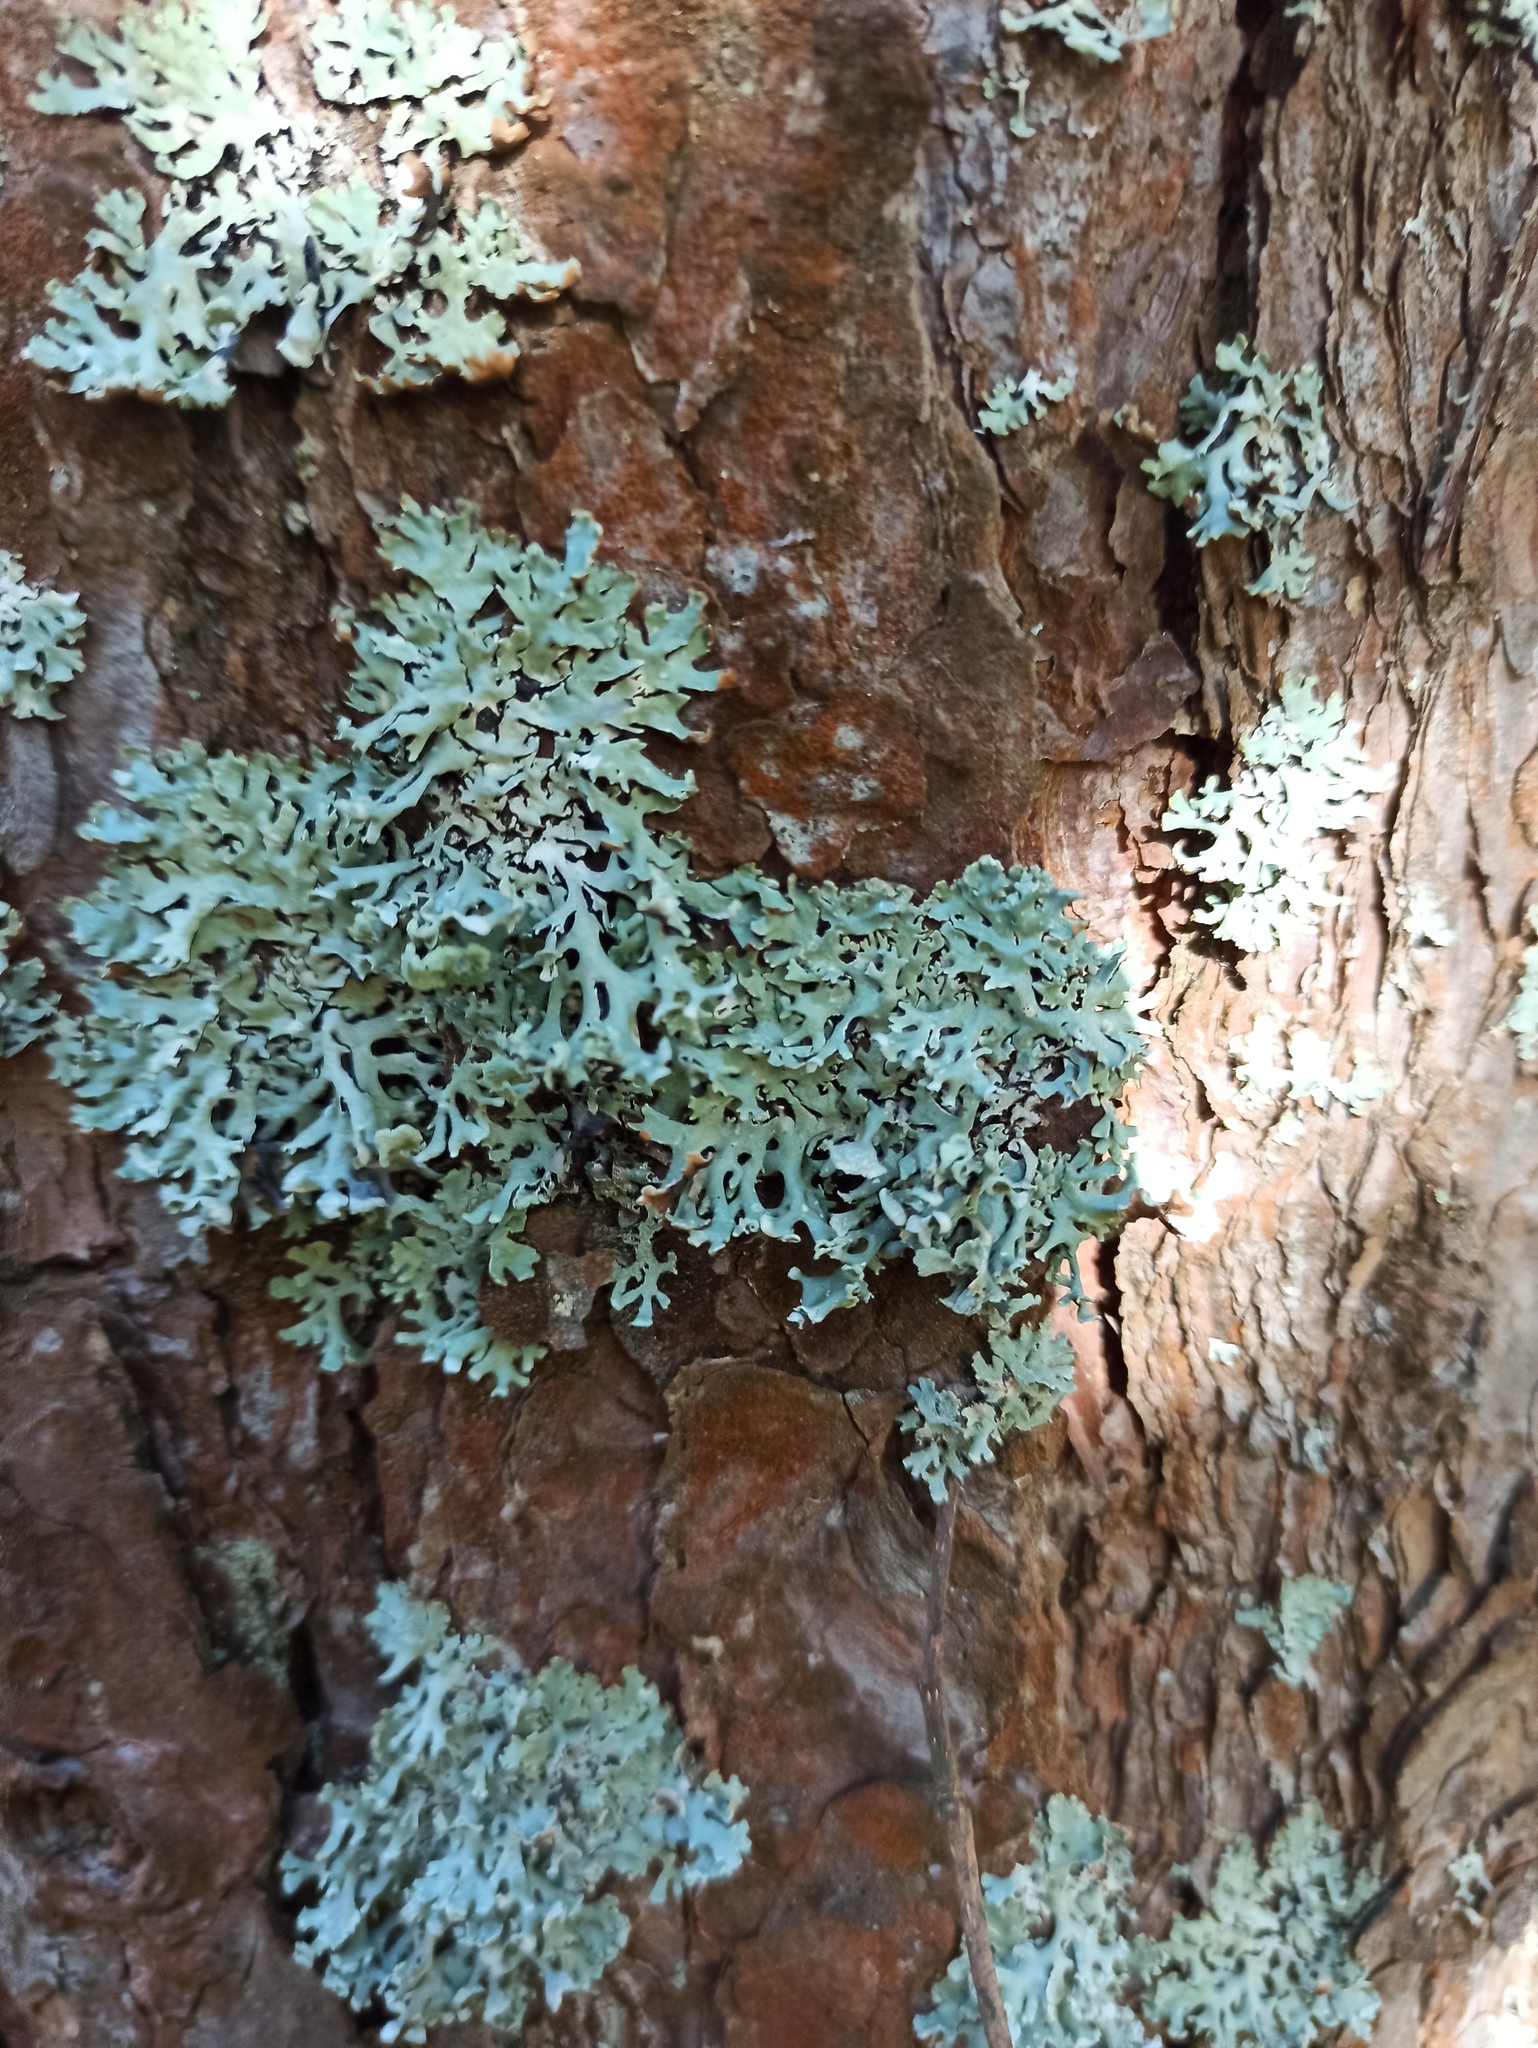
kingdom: Fungi
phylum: Ascomycota
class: Lecanoromycetes
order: Lecanorales
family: Parmeliaceae
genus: Hypogymnia
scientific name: Hypogymnia physodes
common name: Dark crottle
